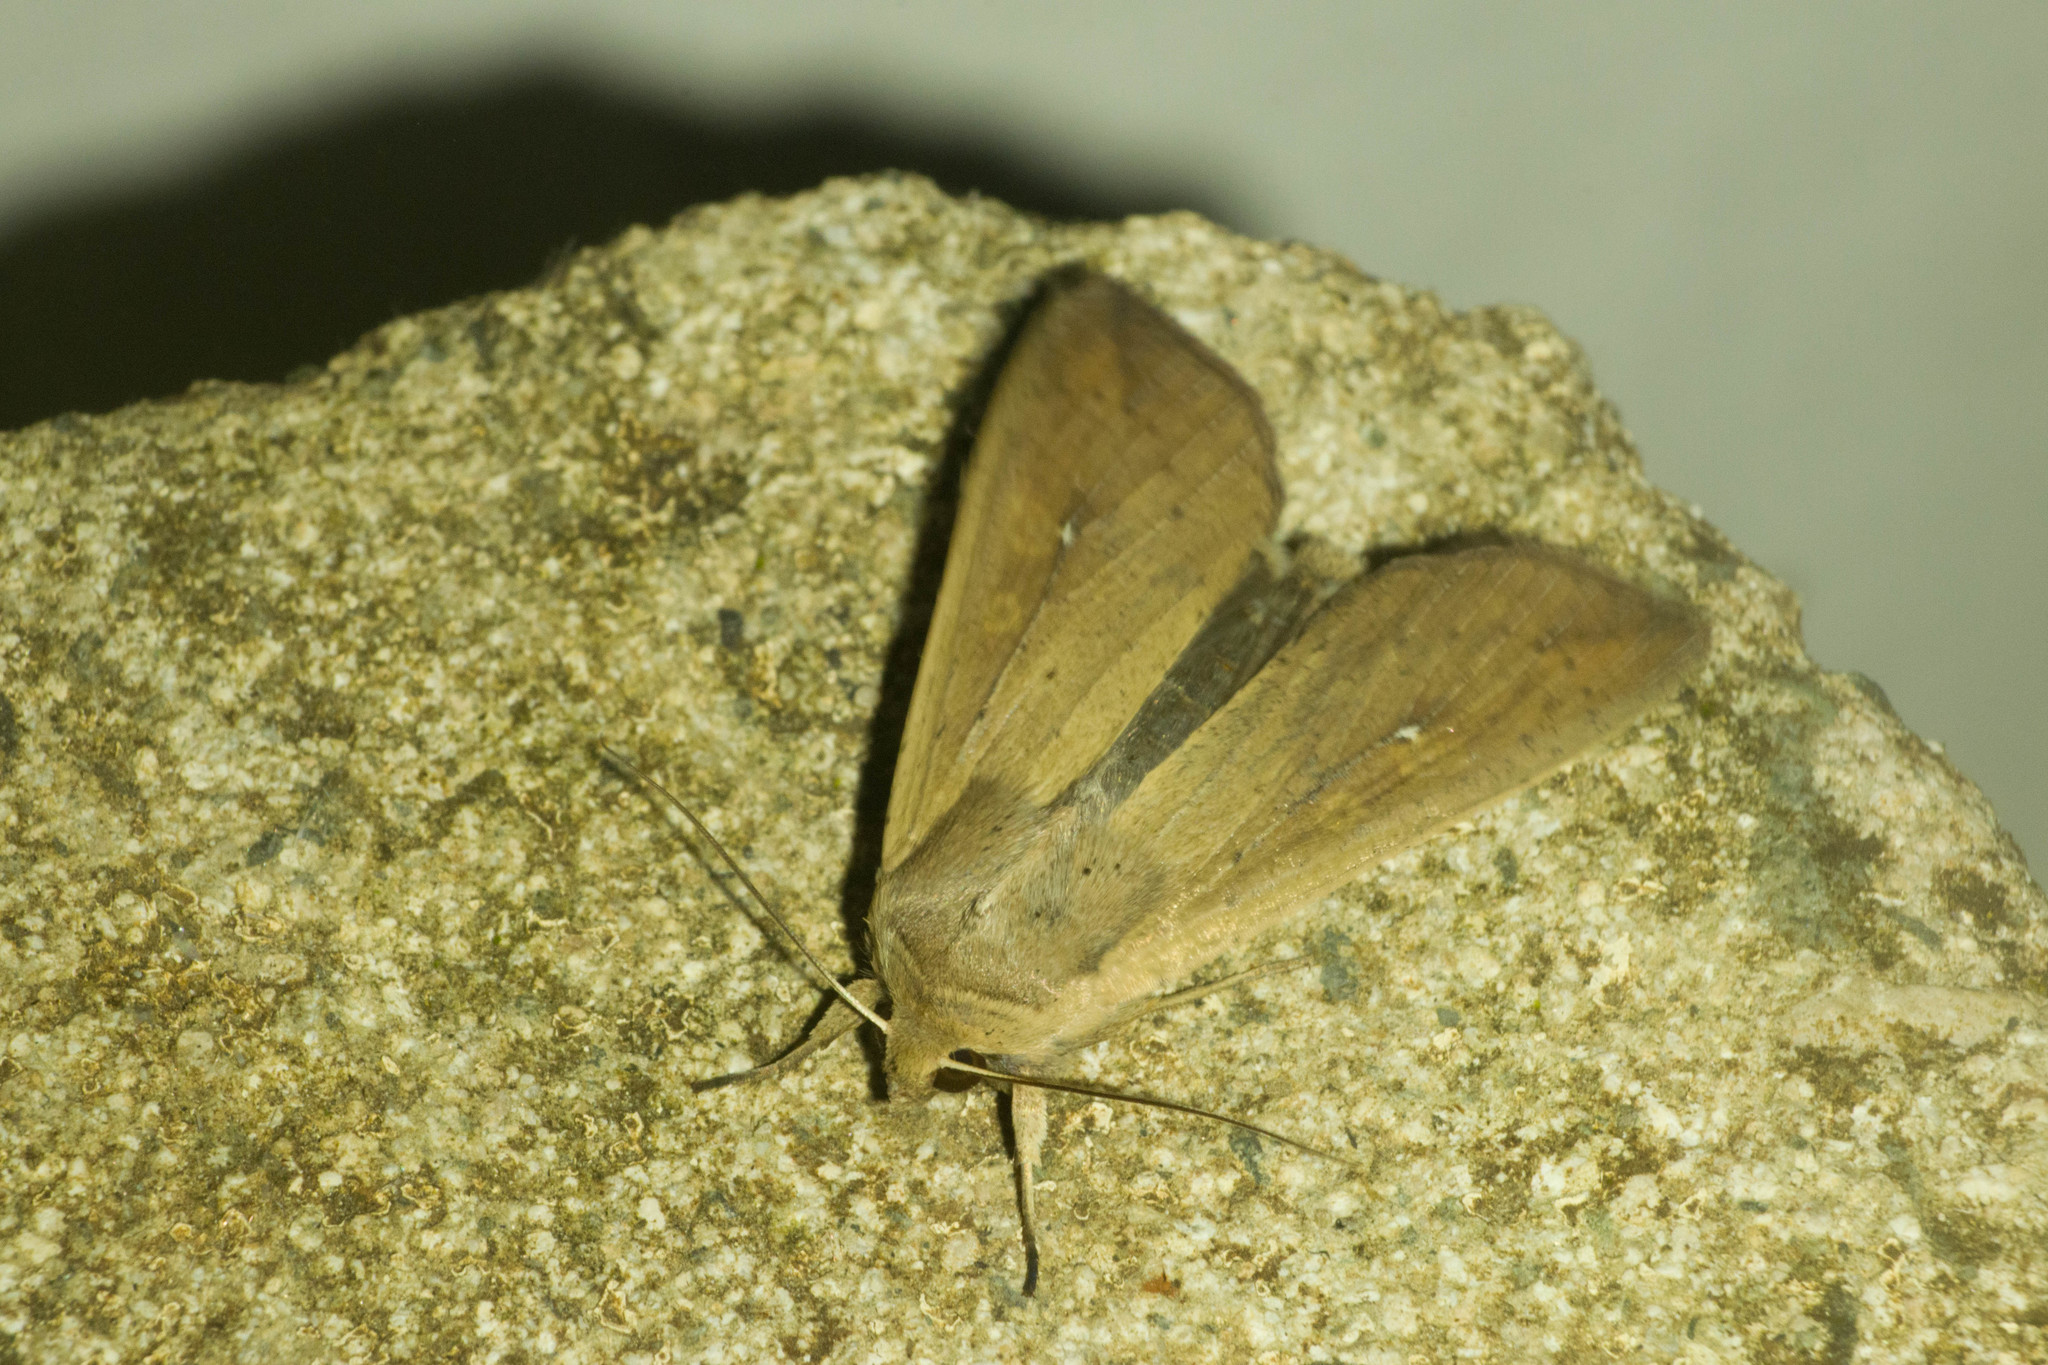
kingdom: Animalia
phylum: Arthropoda
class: Insecta
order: Lepidoptera
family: Noctuidae
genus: Mythimna
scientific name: Mythimna unipuncta
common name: White-speck
